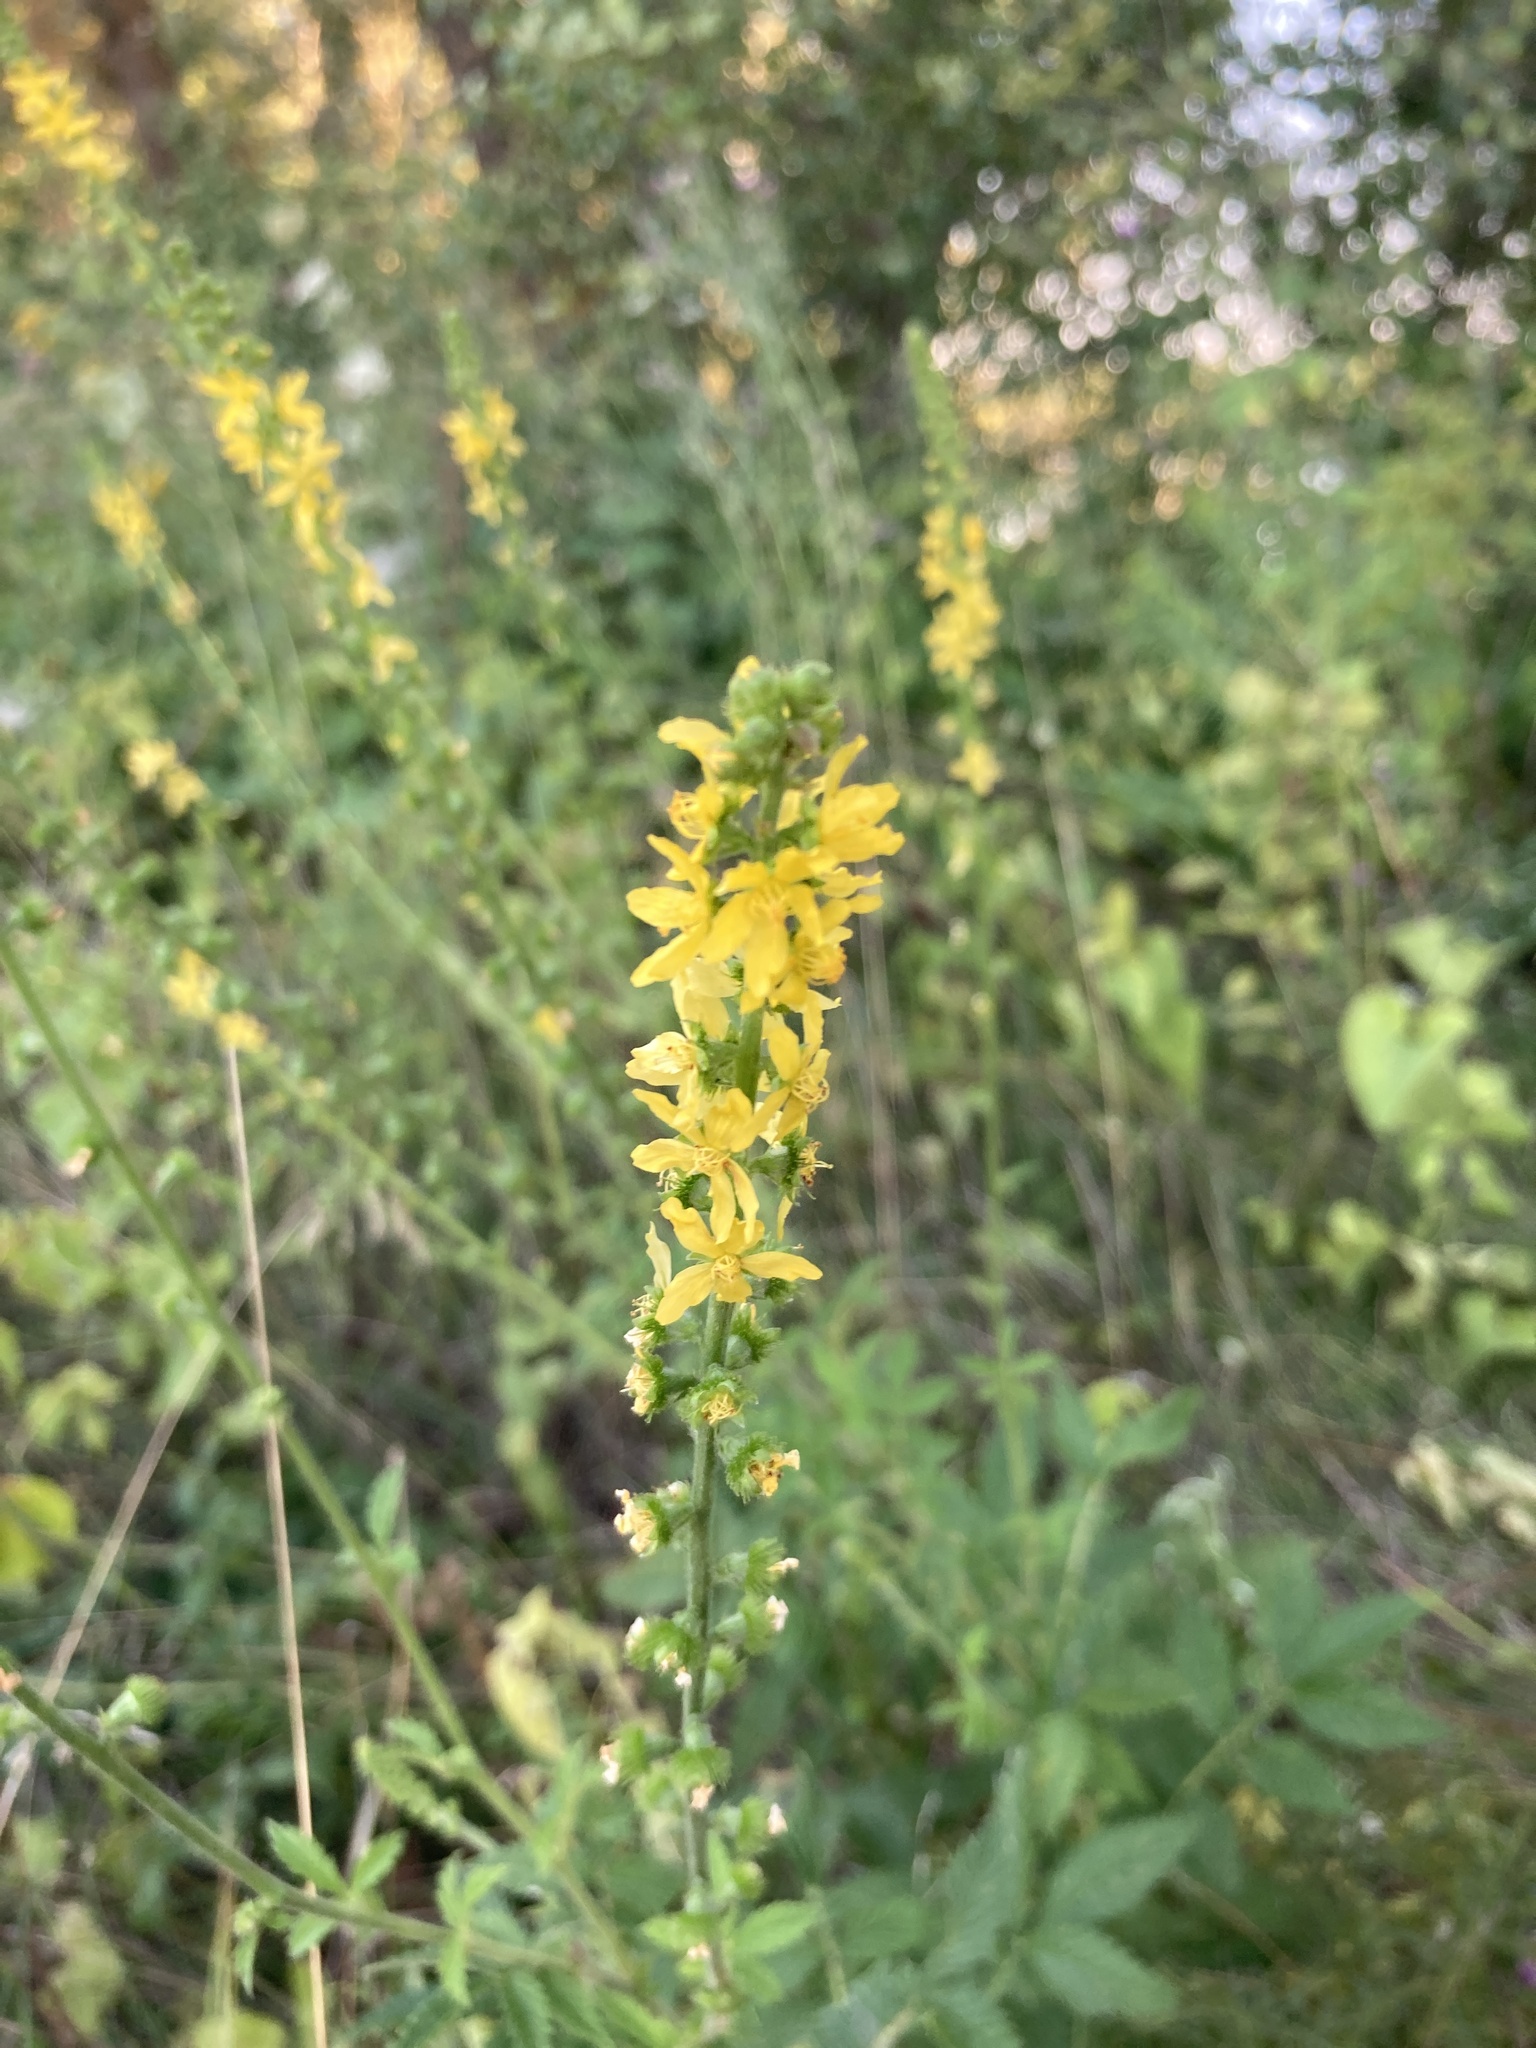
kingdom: Plantae
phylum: Tracheophyta
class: Magnoliopsida
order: Rosales
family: Rosaceae
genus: Agrimonia
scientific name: Agrimonia eupatoria
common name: Agrimony
